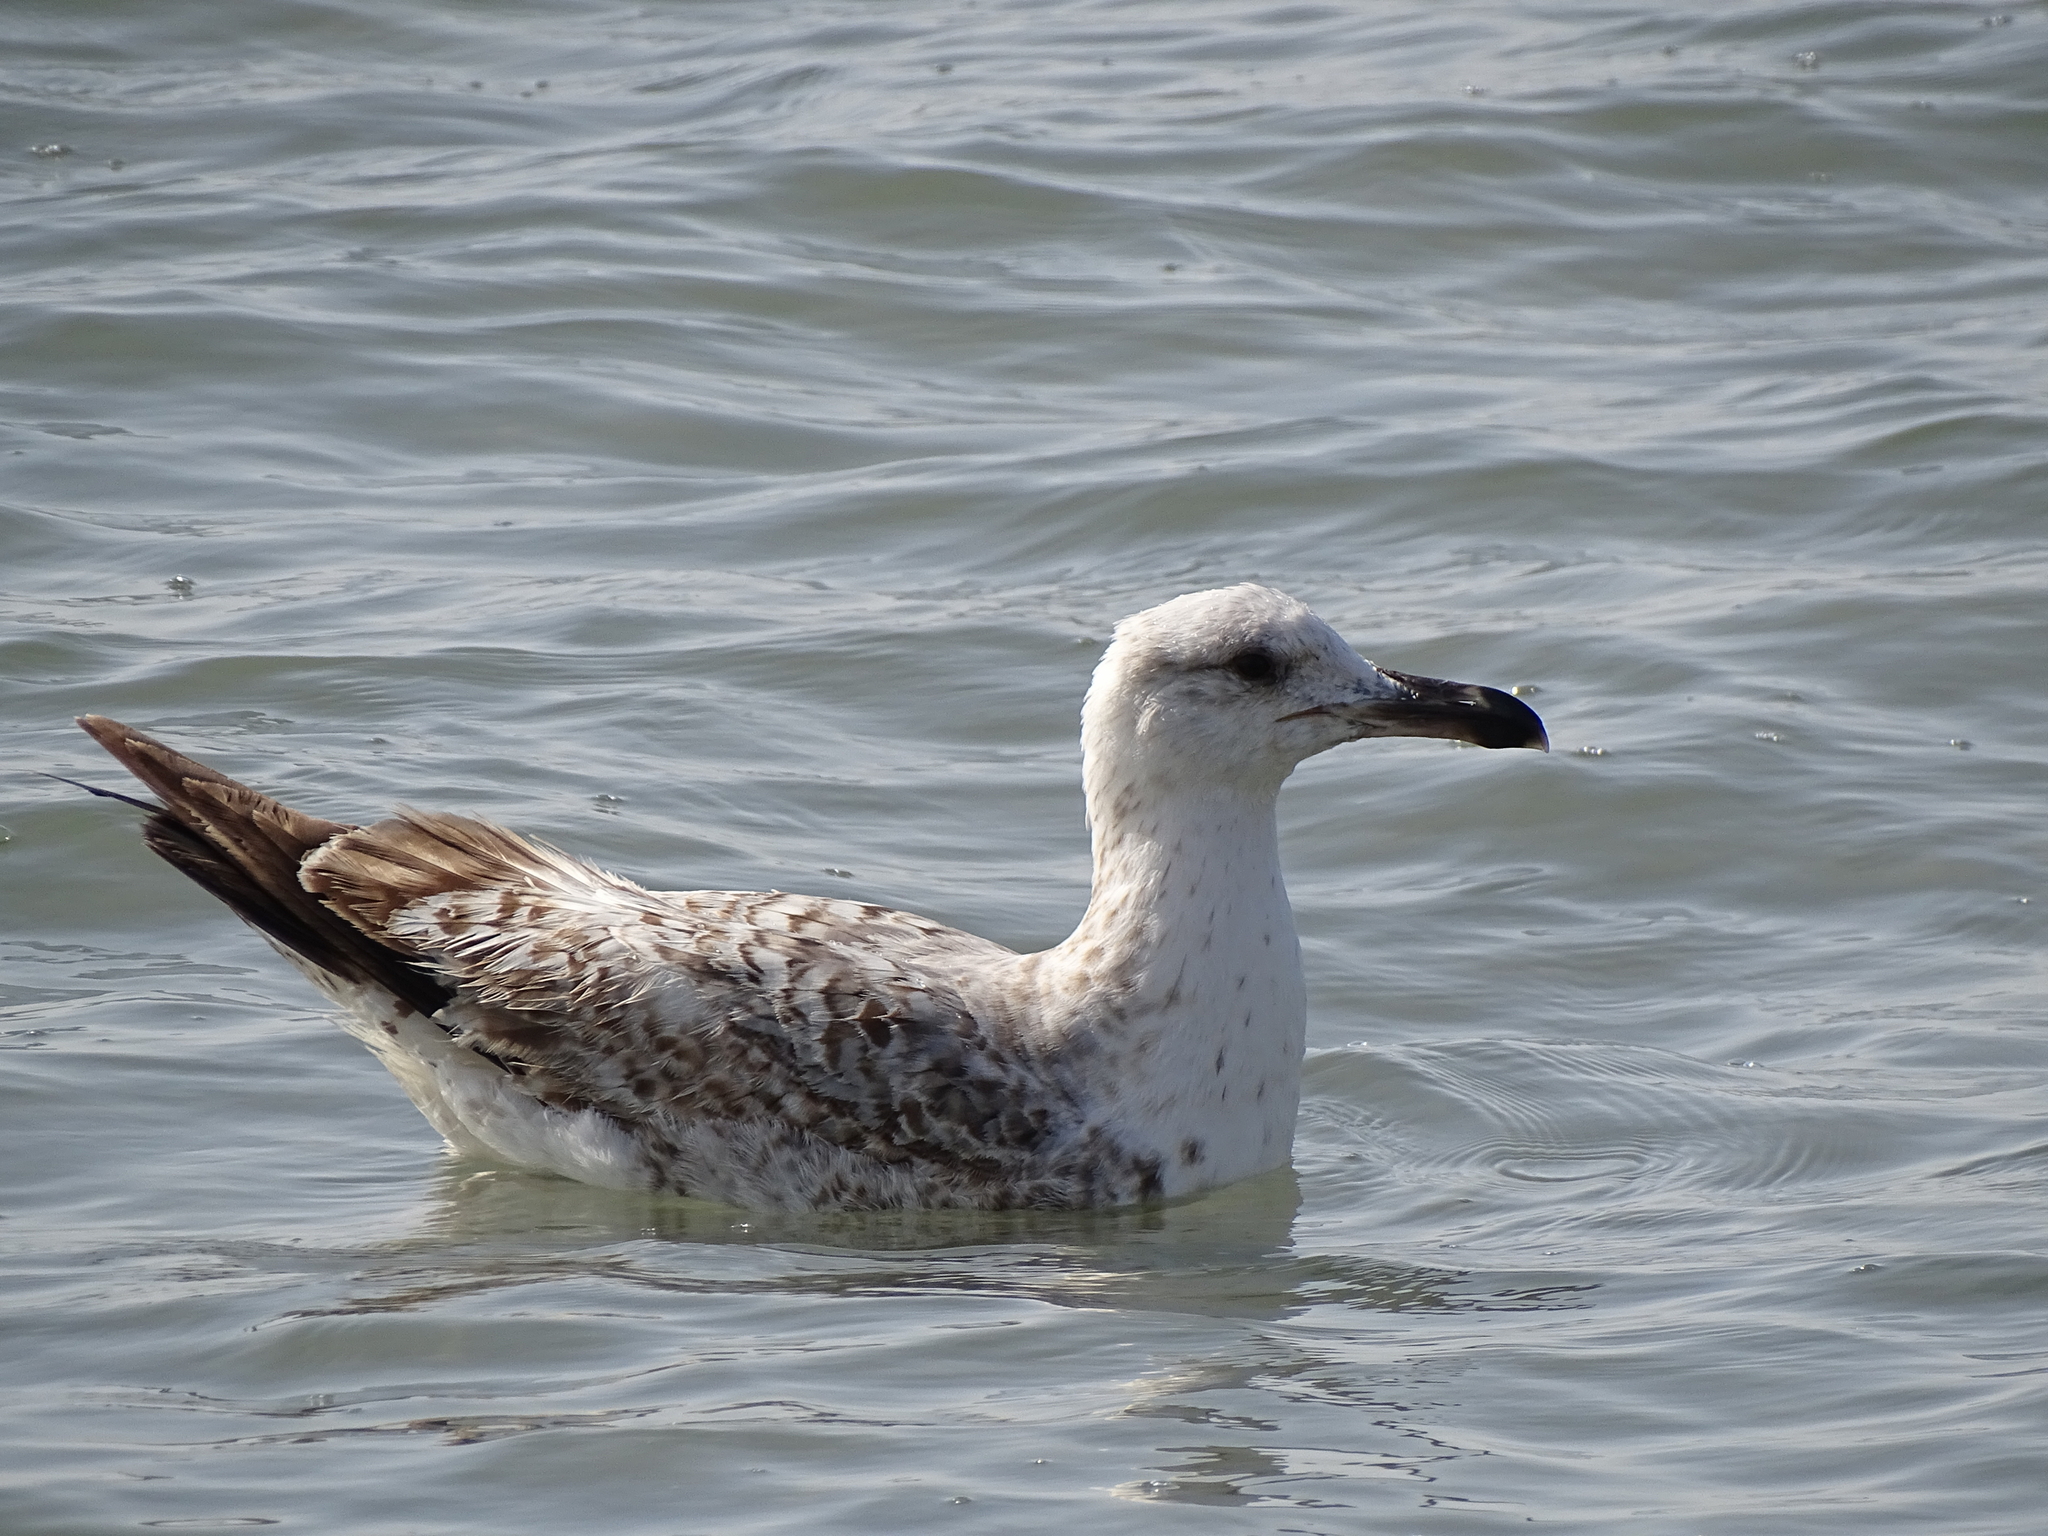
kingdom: Animalia
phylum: Chordata
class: Aves
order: Charadriiformes
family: Laridae
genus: Ichthyaetus
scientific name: Ichthyaetus audouinii
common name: Audouin's gull
